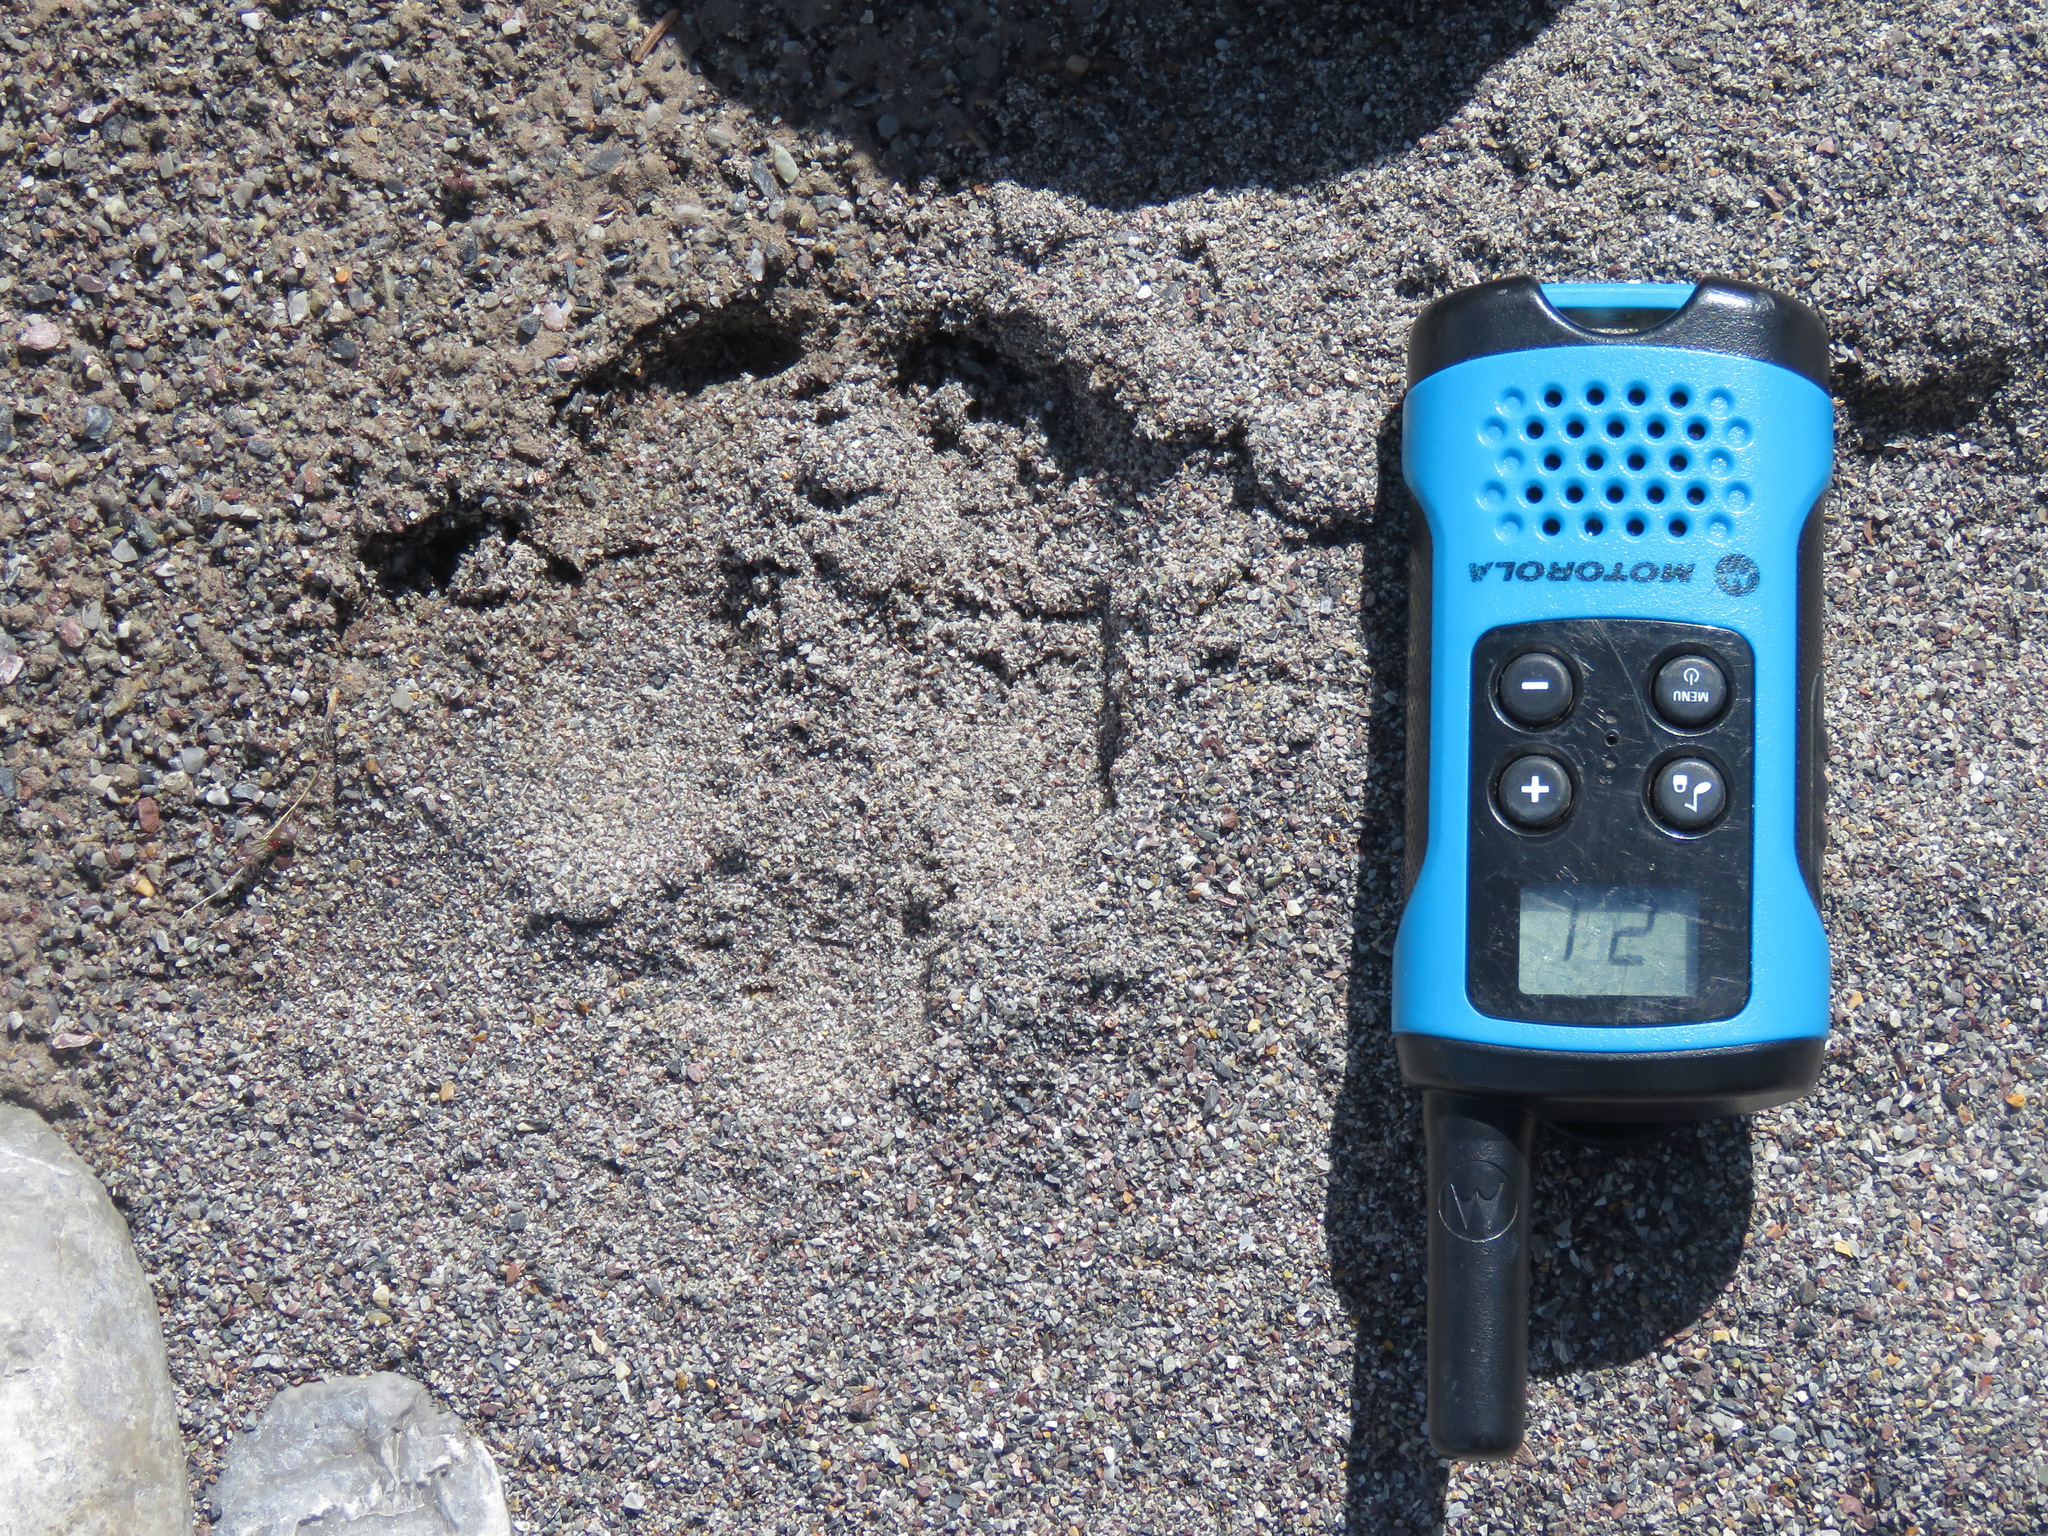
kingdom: Animalia
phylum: Chordata
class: Mammalia
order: Artiodactyla
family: Cervidae
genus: Rangifer
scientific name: Rangifer tarandus
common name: Reindeer
